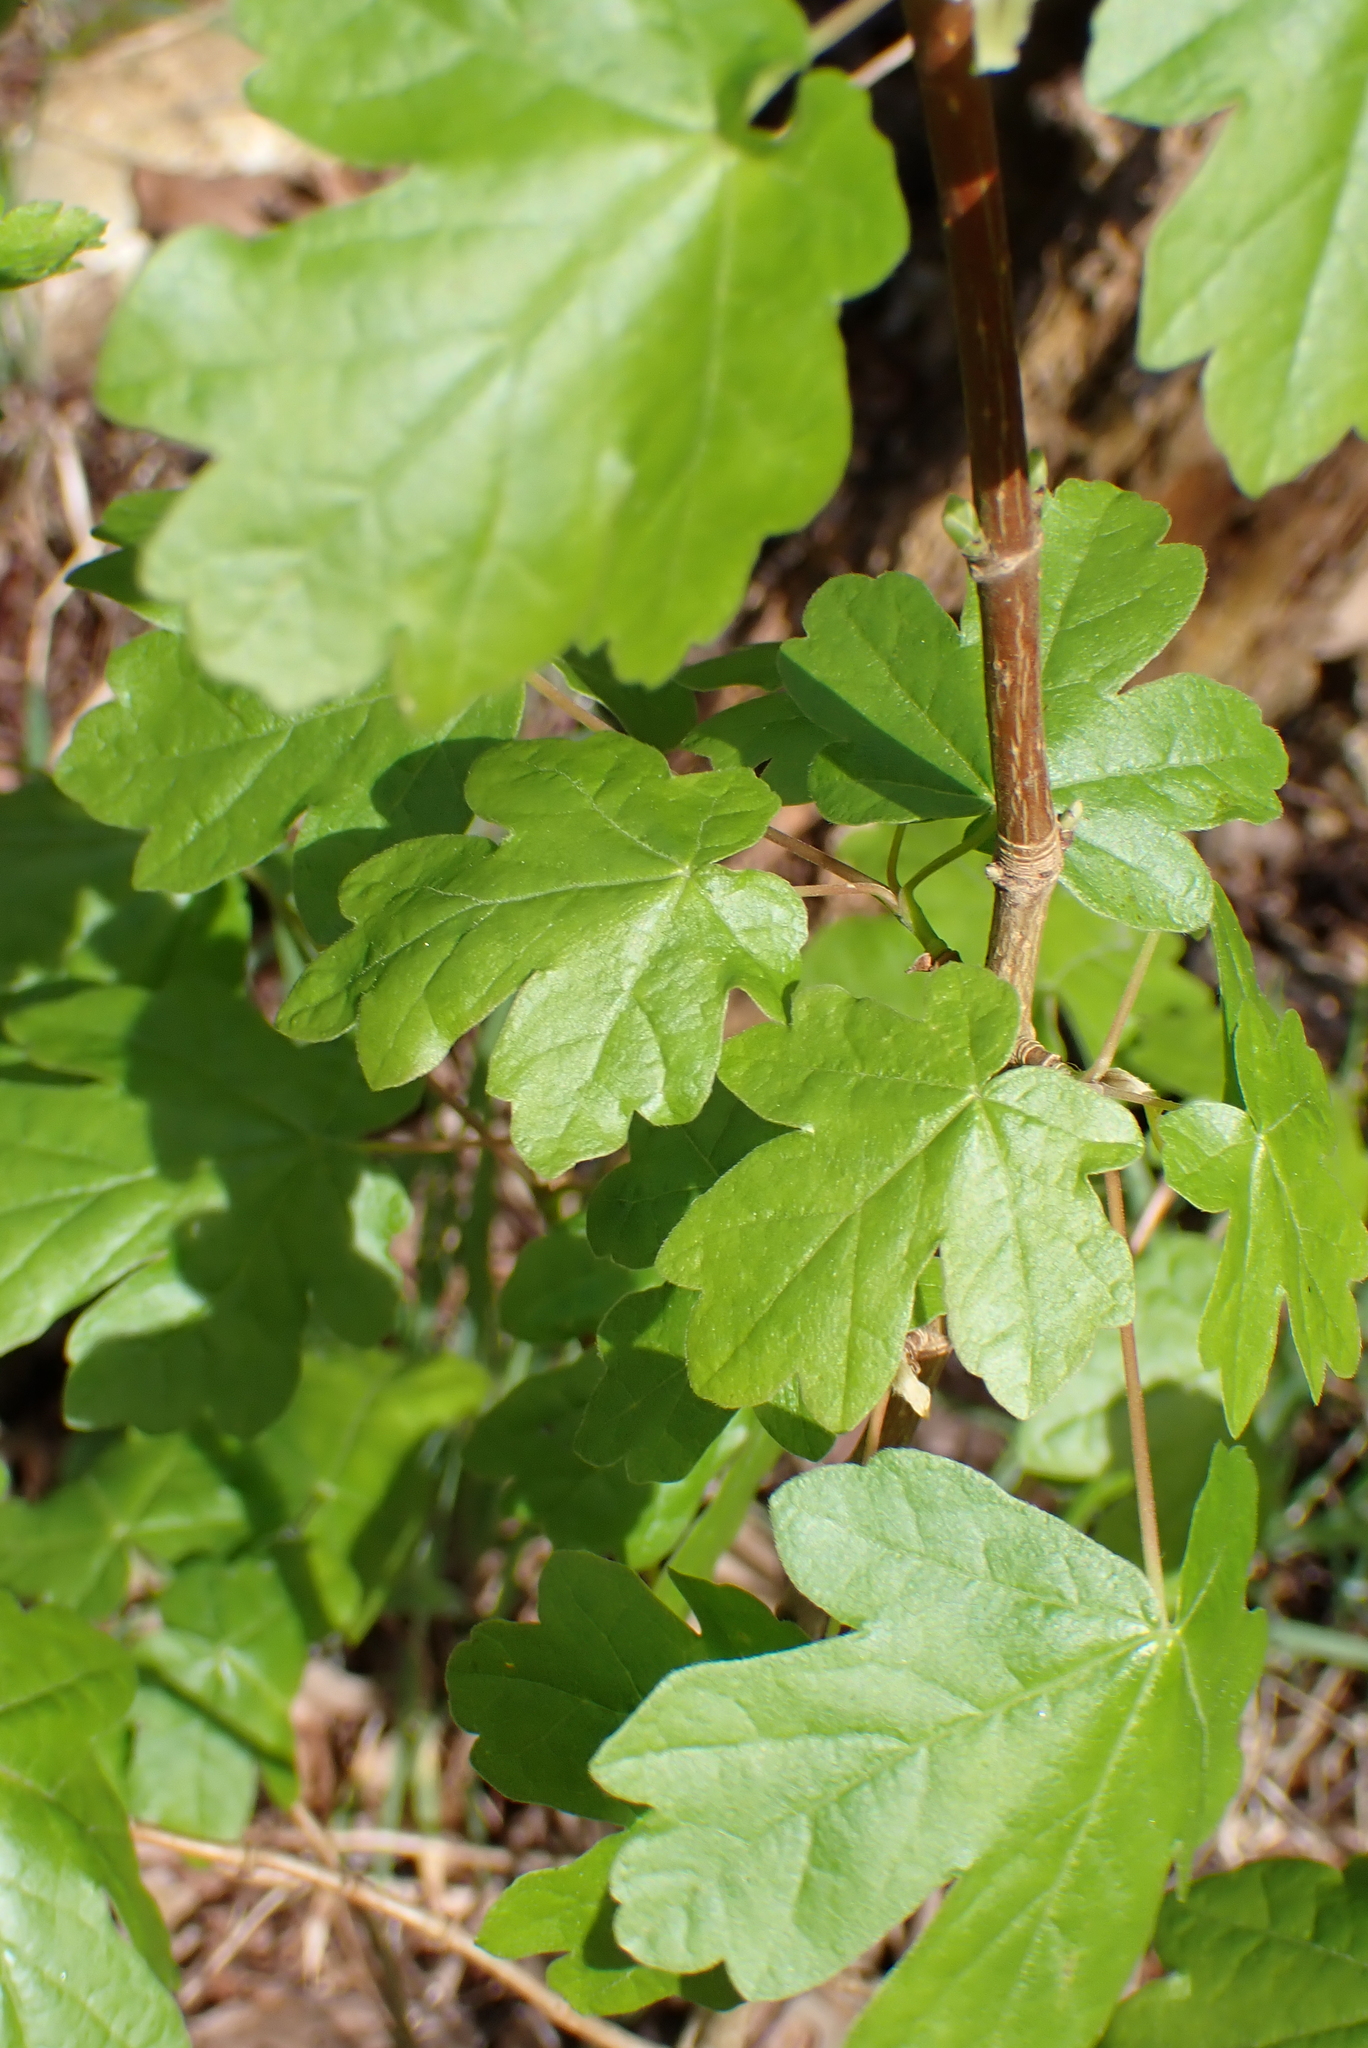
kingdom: Plantae
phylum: Tracheophyta
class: Magnoliopsida
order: Sapindales
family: Sapindaceae
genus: Acer
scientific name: Acer campestre
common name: Field maple
